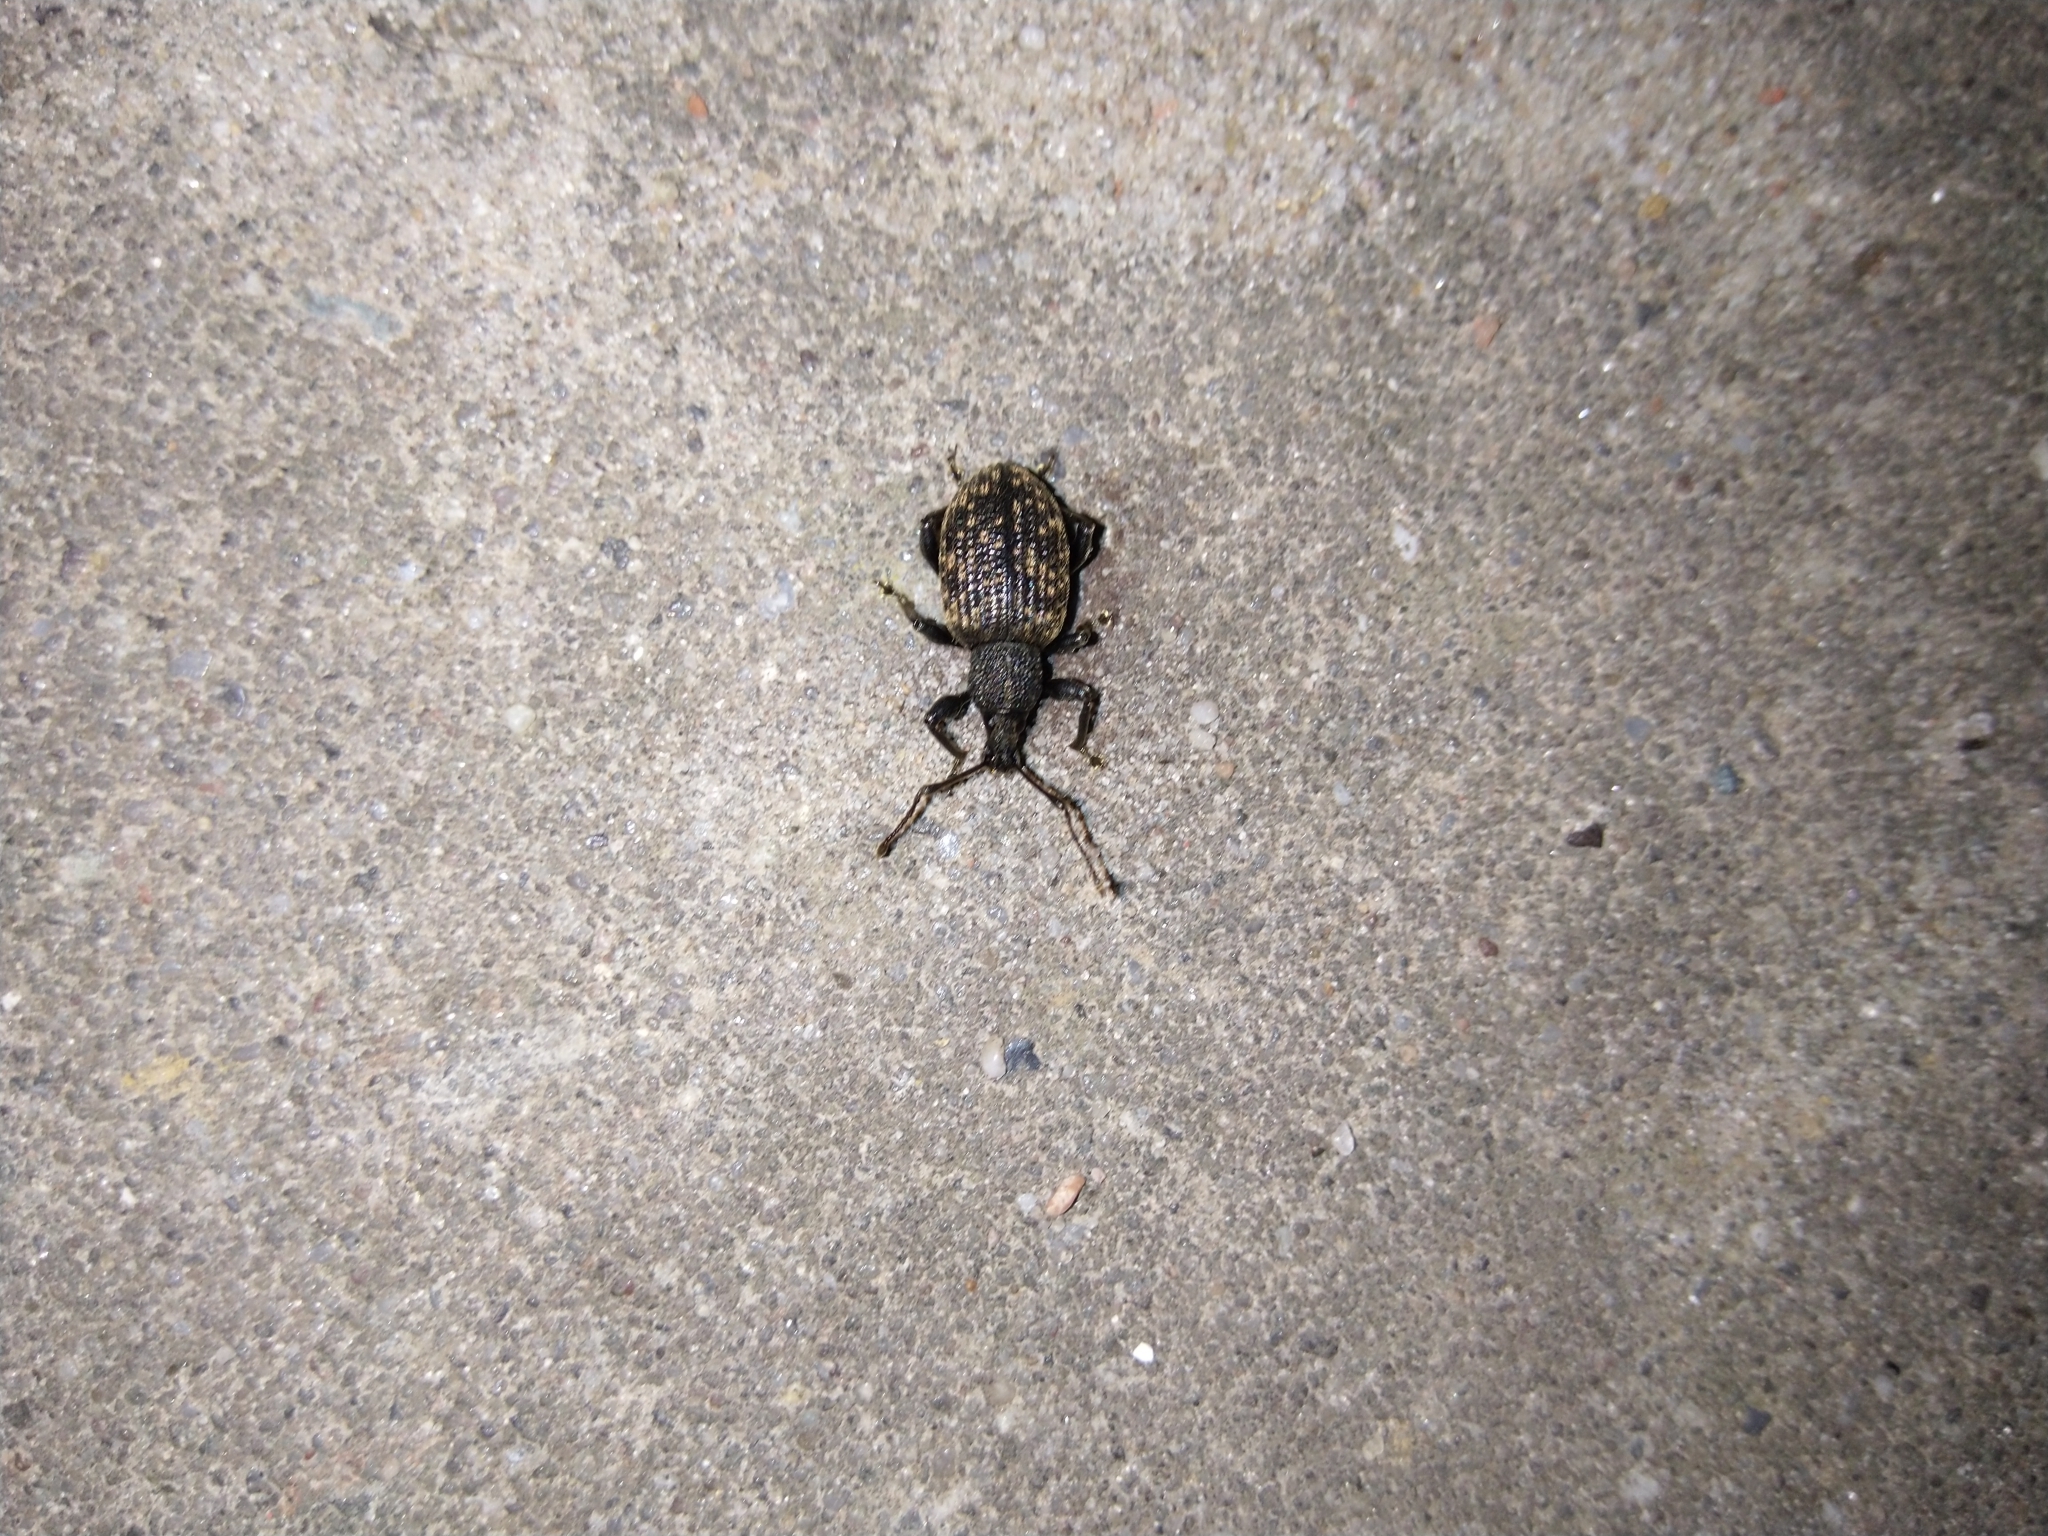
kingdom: Animalia
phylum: Arthropoda
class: Insecta
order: Coleoptera
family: Curculionidae
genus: Otiorhynchus
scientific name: Otiorhynchus sulcatus
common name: Black vine weevil
